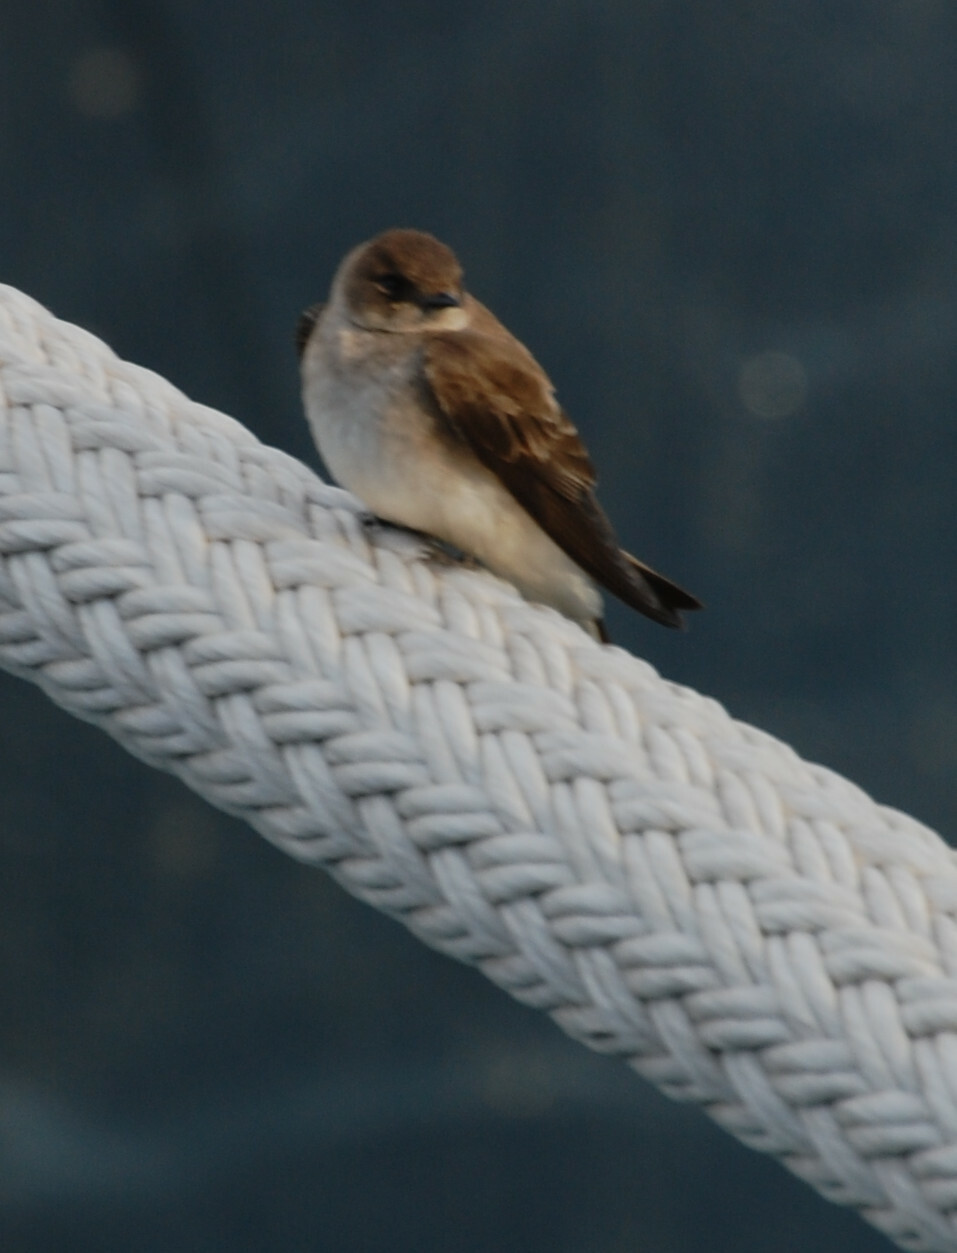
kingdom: Animalia
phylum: Chordata
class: Aves
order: Passeriformes
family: Hirundinidae
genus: Stelgidopteryx
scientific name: Stelgidopteryx serripennis
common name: Northern rough-winged swallow
